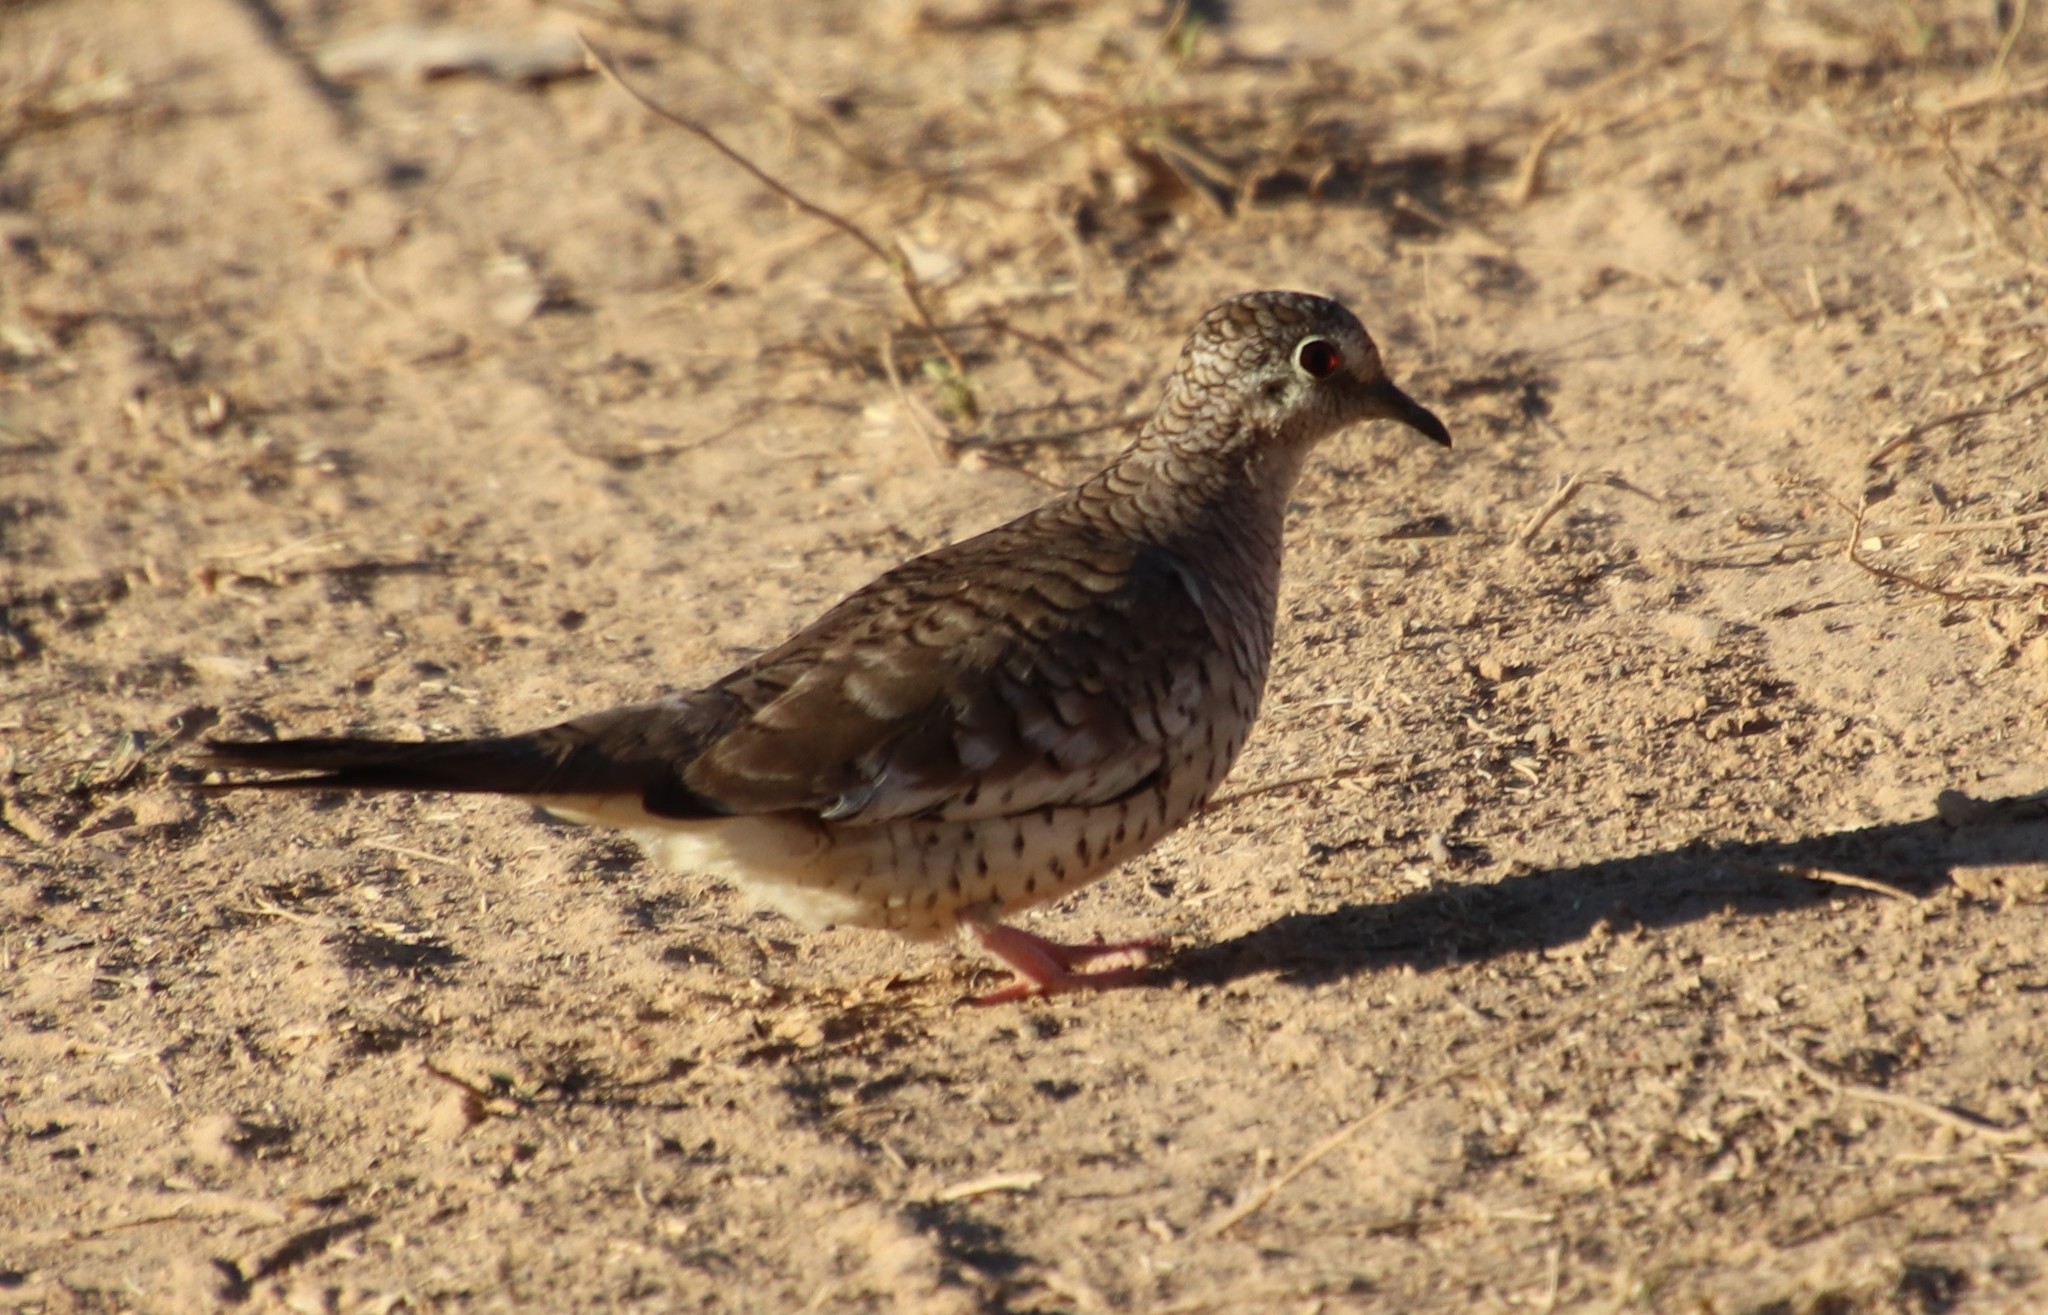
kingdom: Animalia
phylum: Chordata
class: Aves
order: Columbiformes
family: Columbidae
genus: Columbina
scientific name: Columbina squammata
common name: Scaled dove
